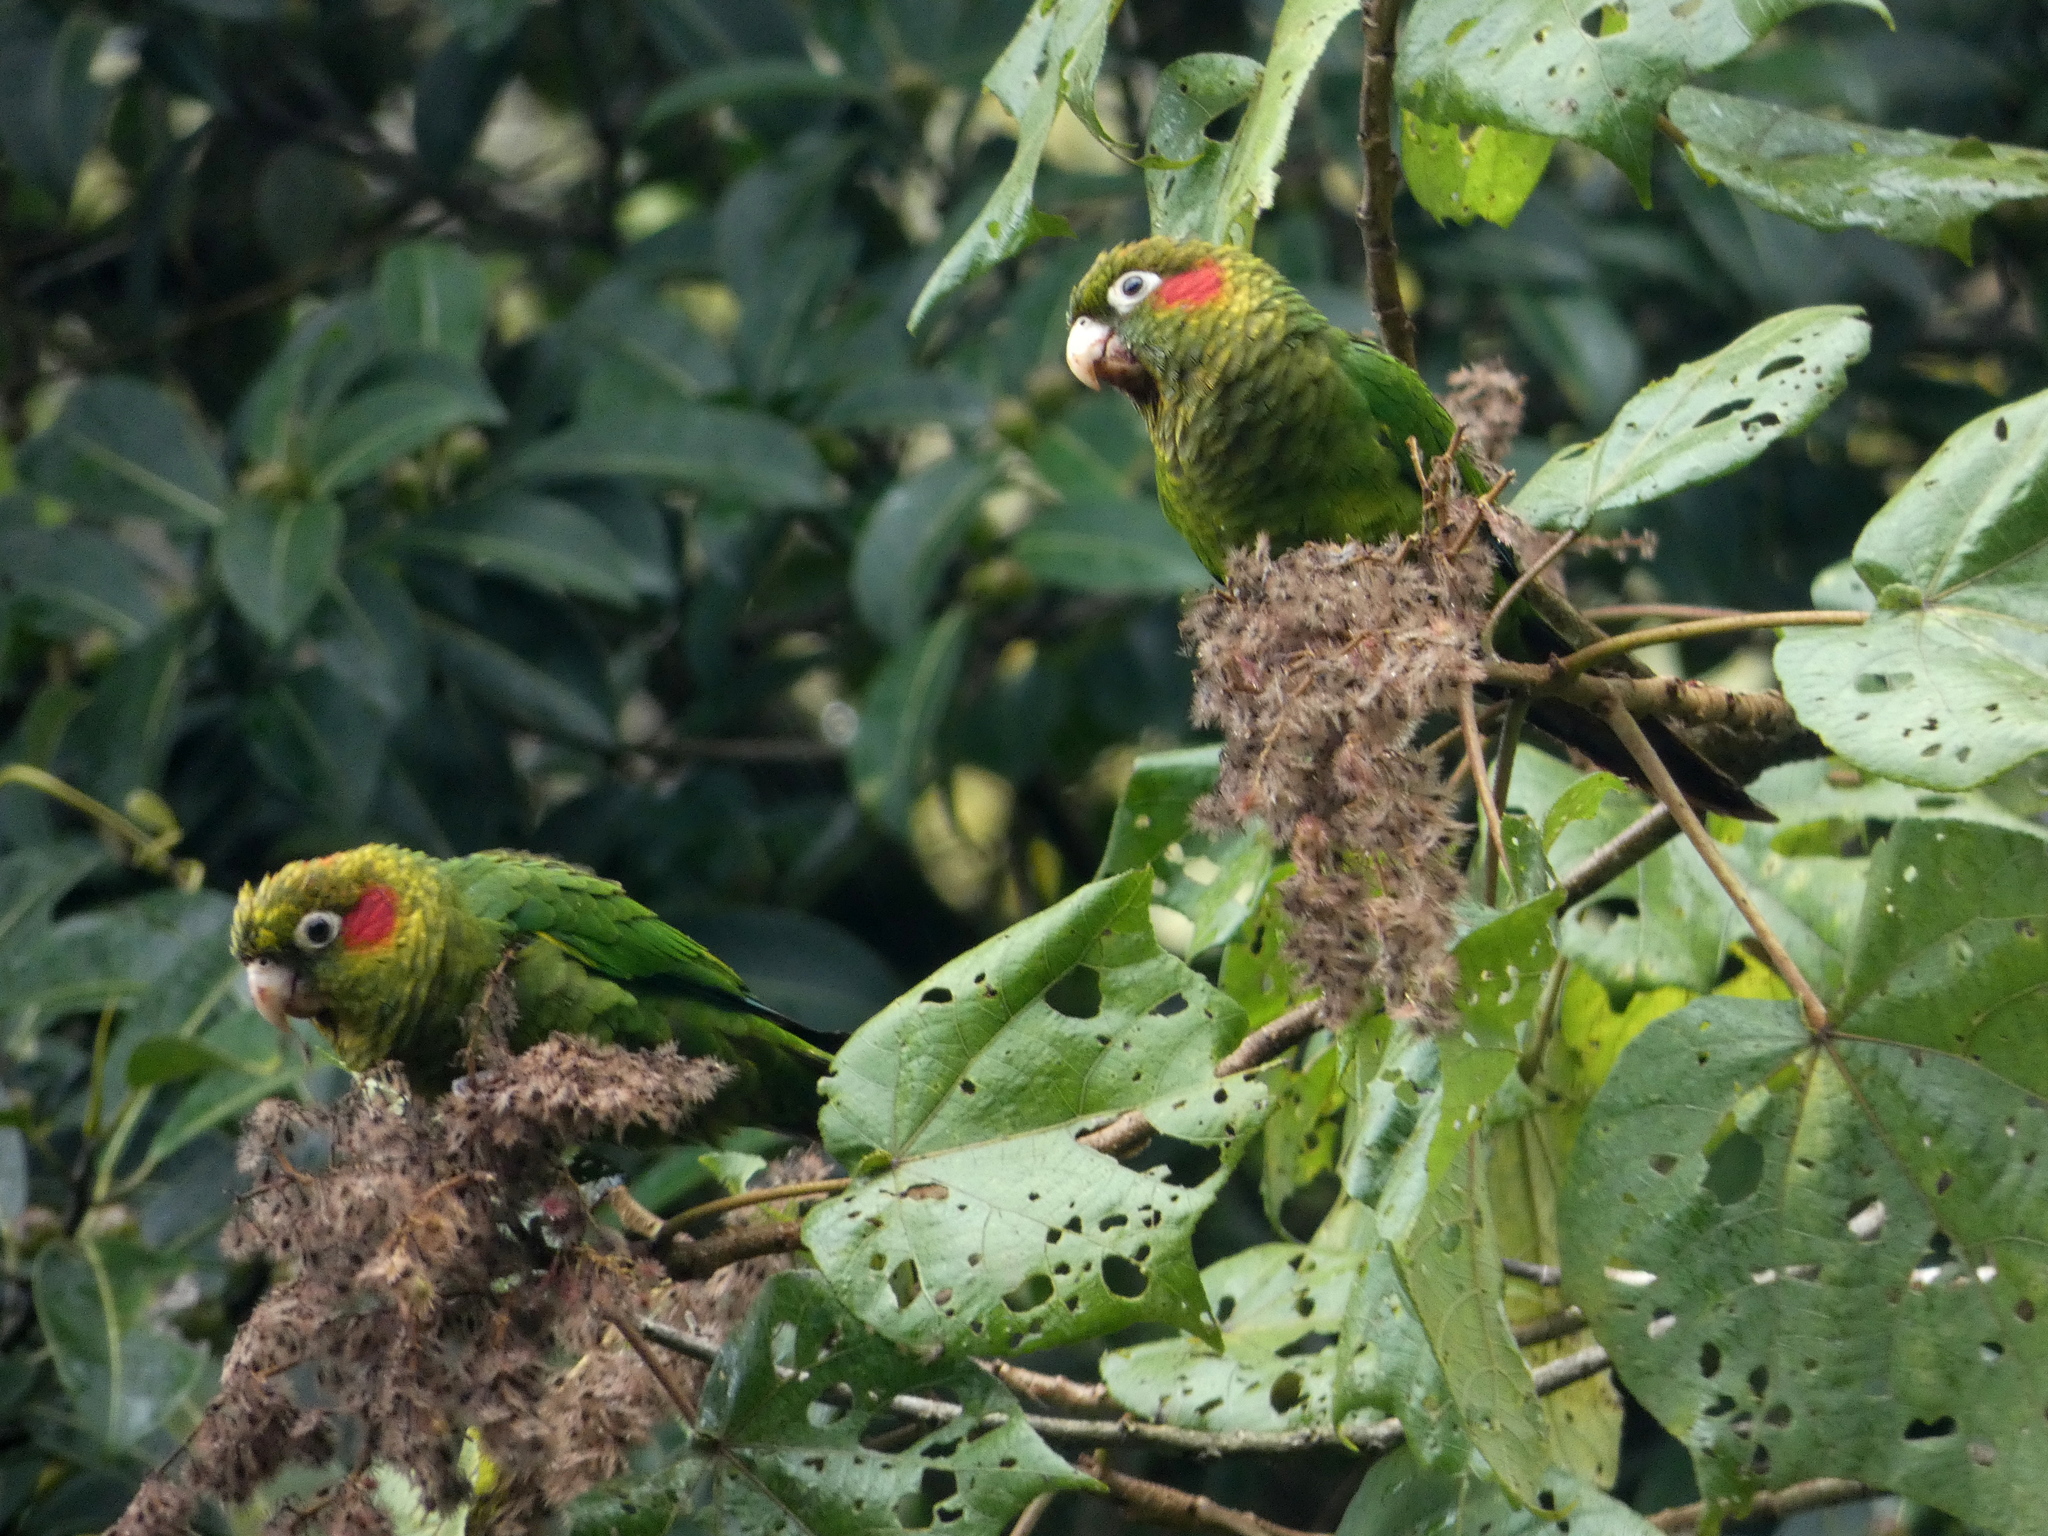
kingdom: Animalia
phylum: Chordata
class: Aves
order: Psittaciformes
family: Psittacidae
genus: Pyrrhura
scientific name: Pyrrhura hoffmanni
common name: Sulphur-winged parakeet
